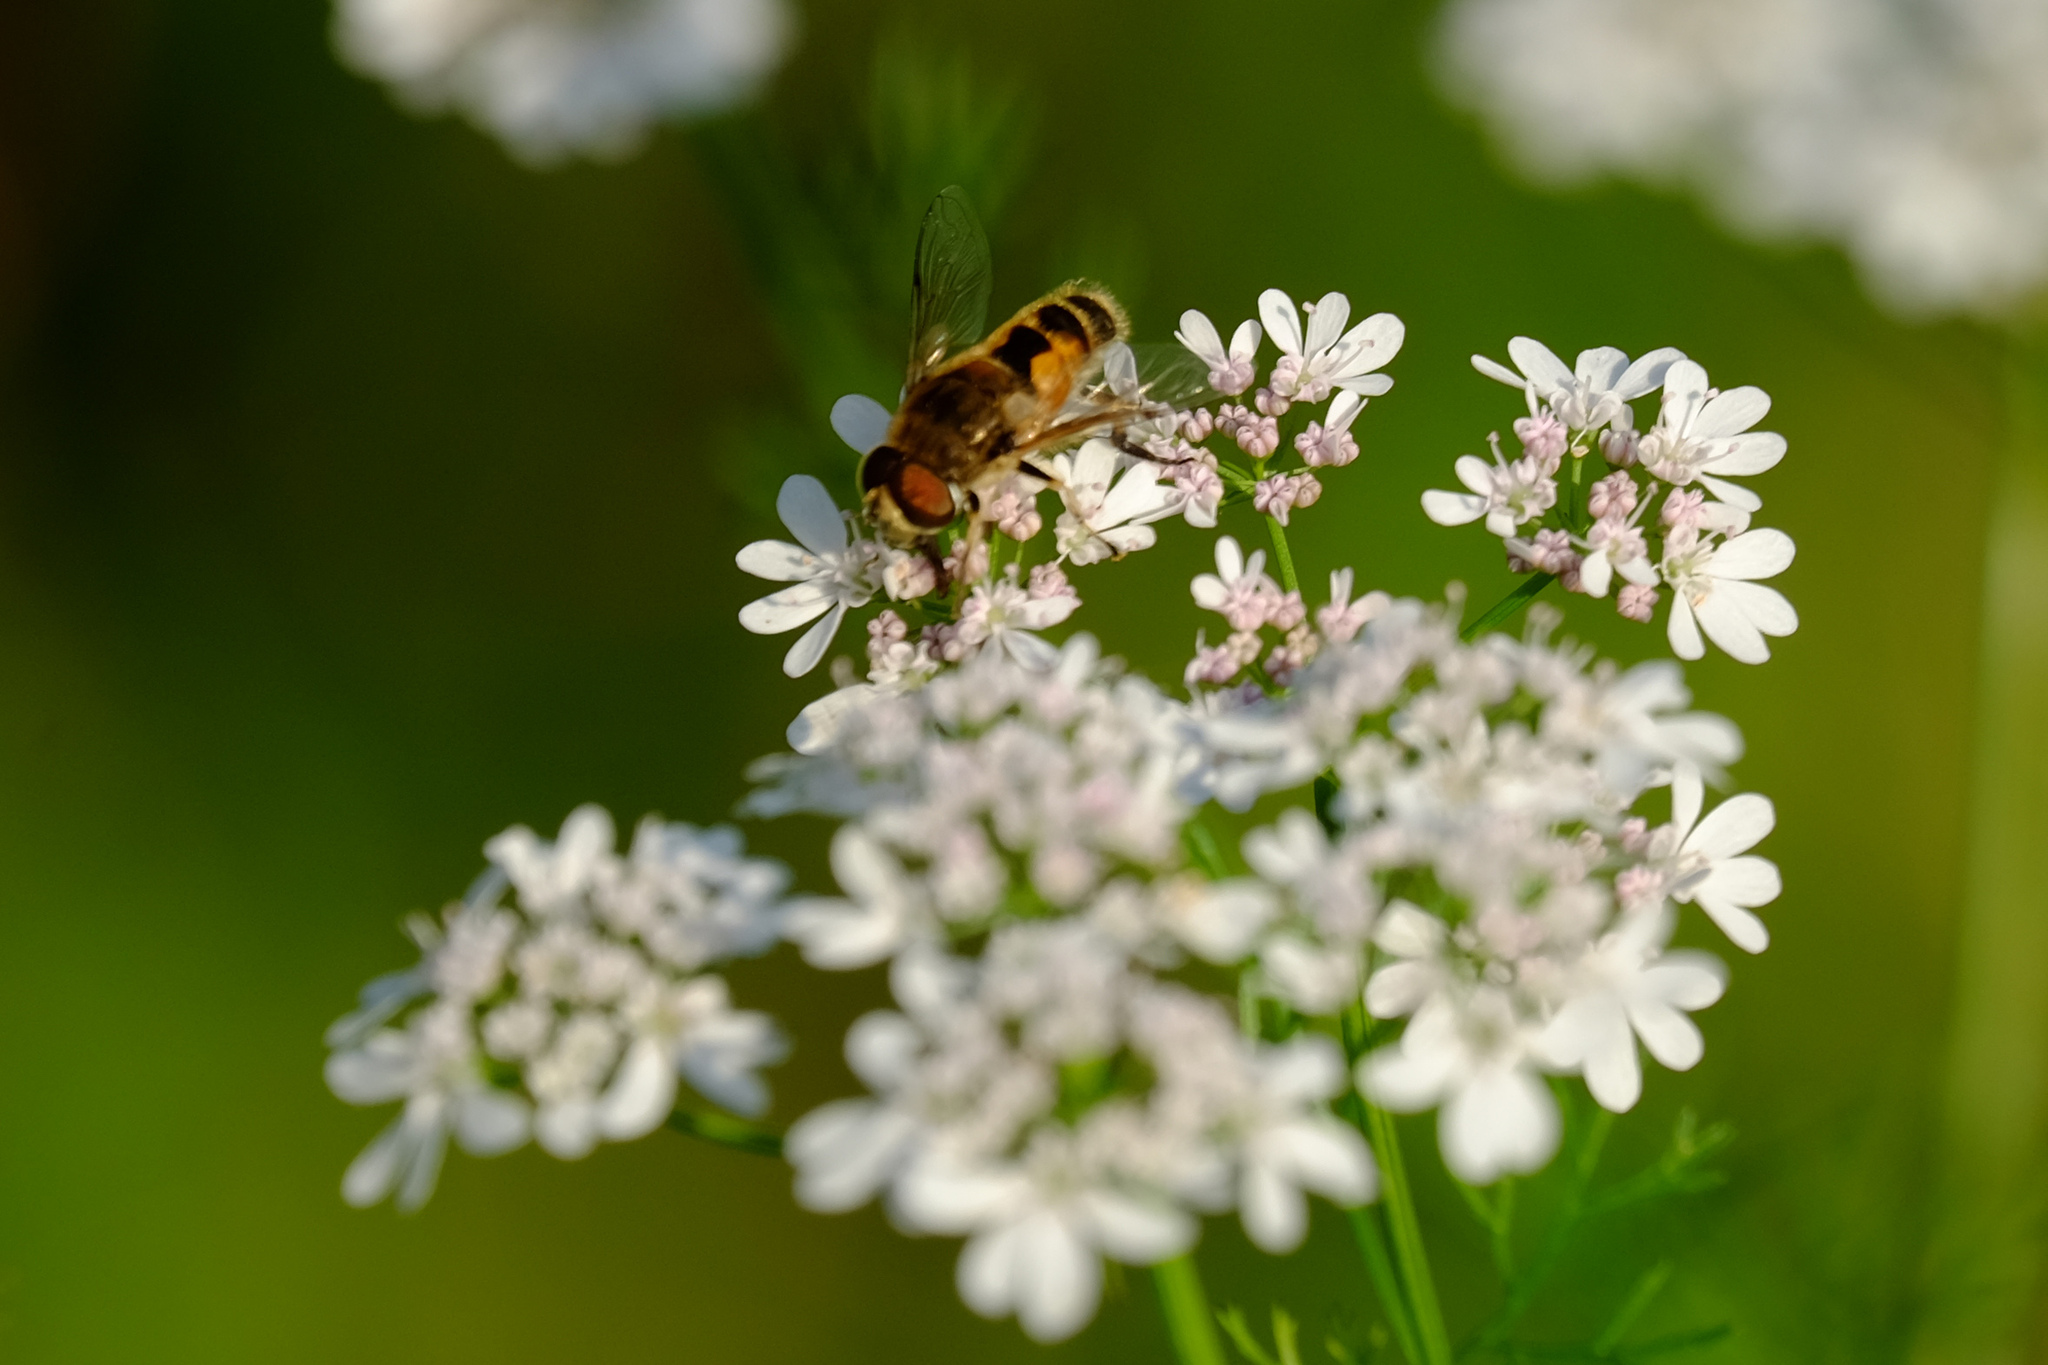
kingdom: Animalia
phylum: Arthropoda
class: Insecta
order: Diptera
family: Syrphidae
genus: Eristalis
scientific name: Eristalis arbustorum
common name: Hover fly
